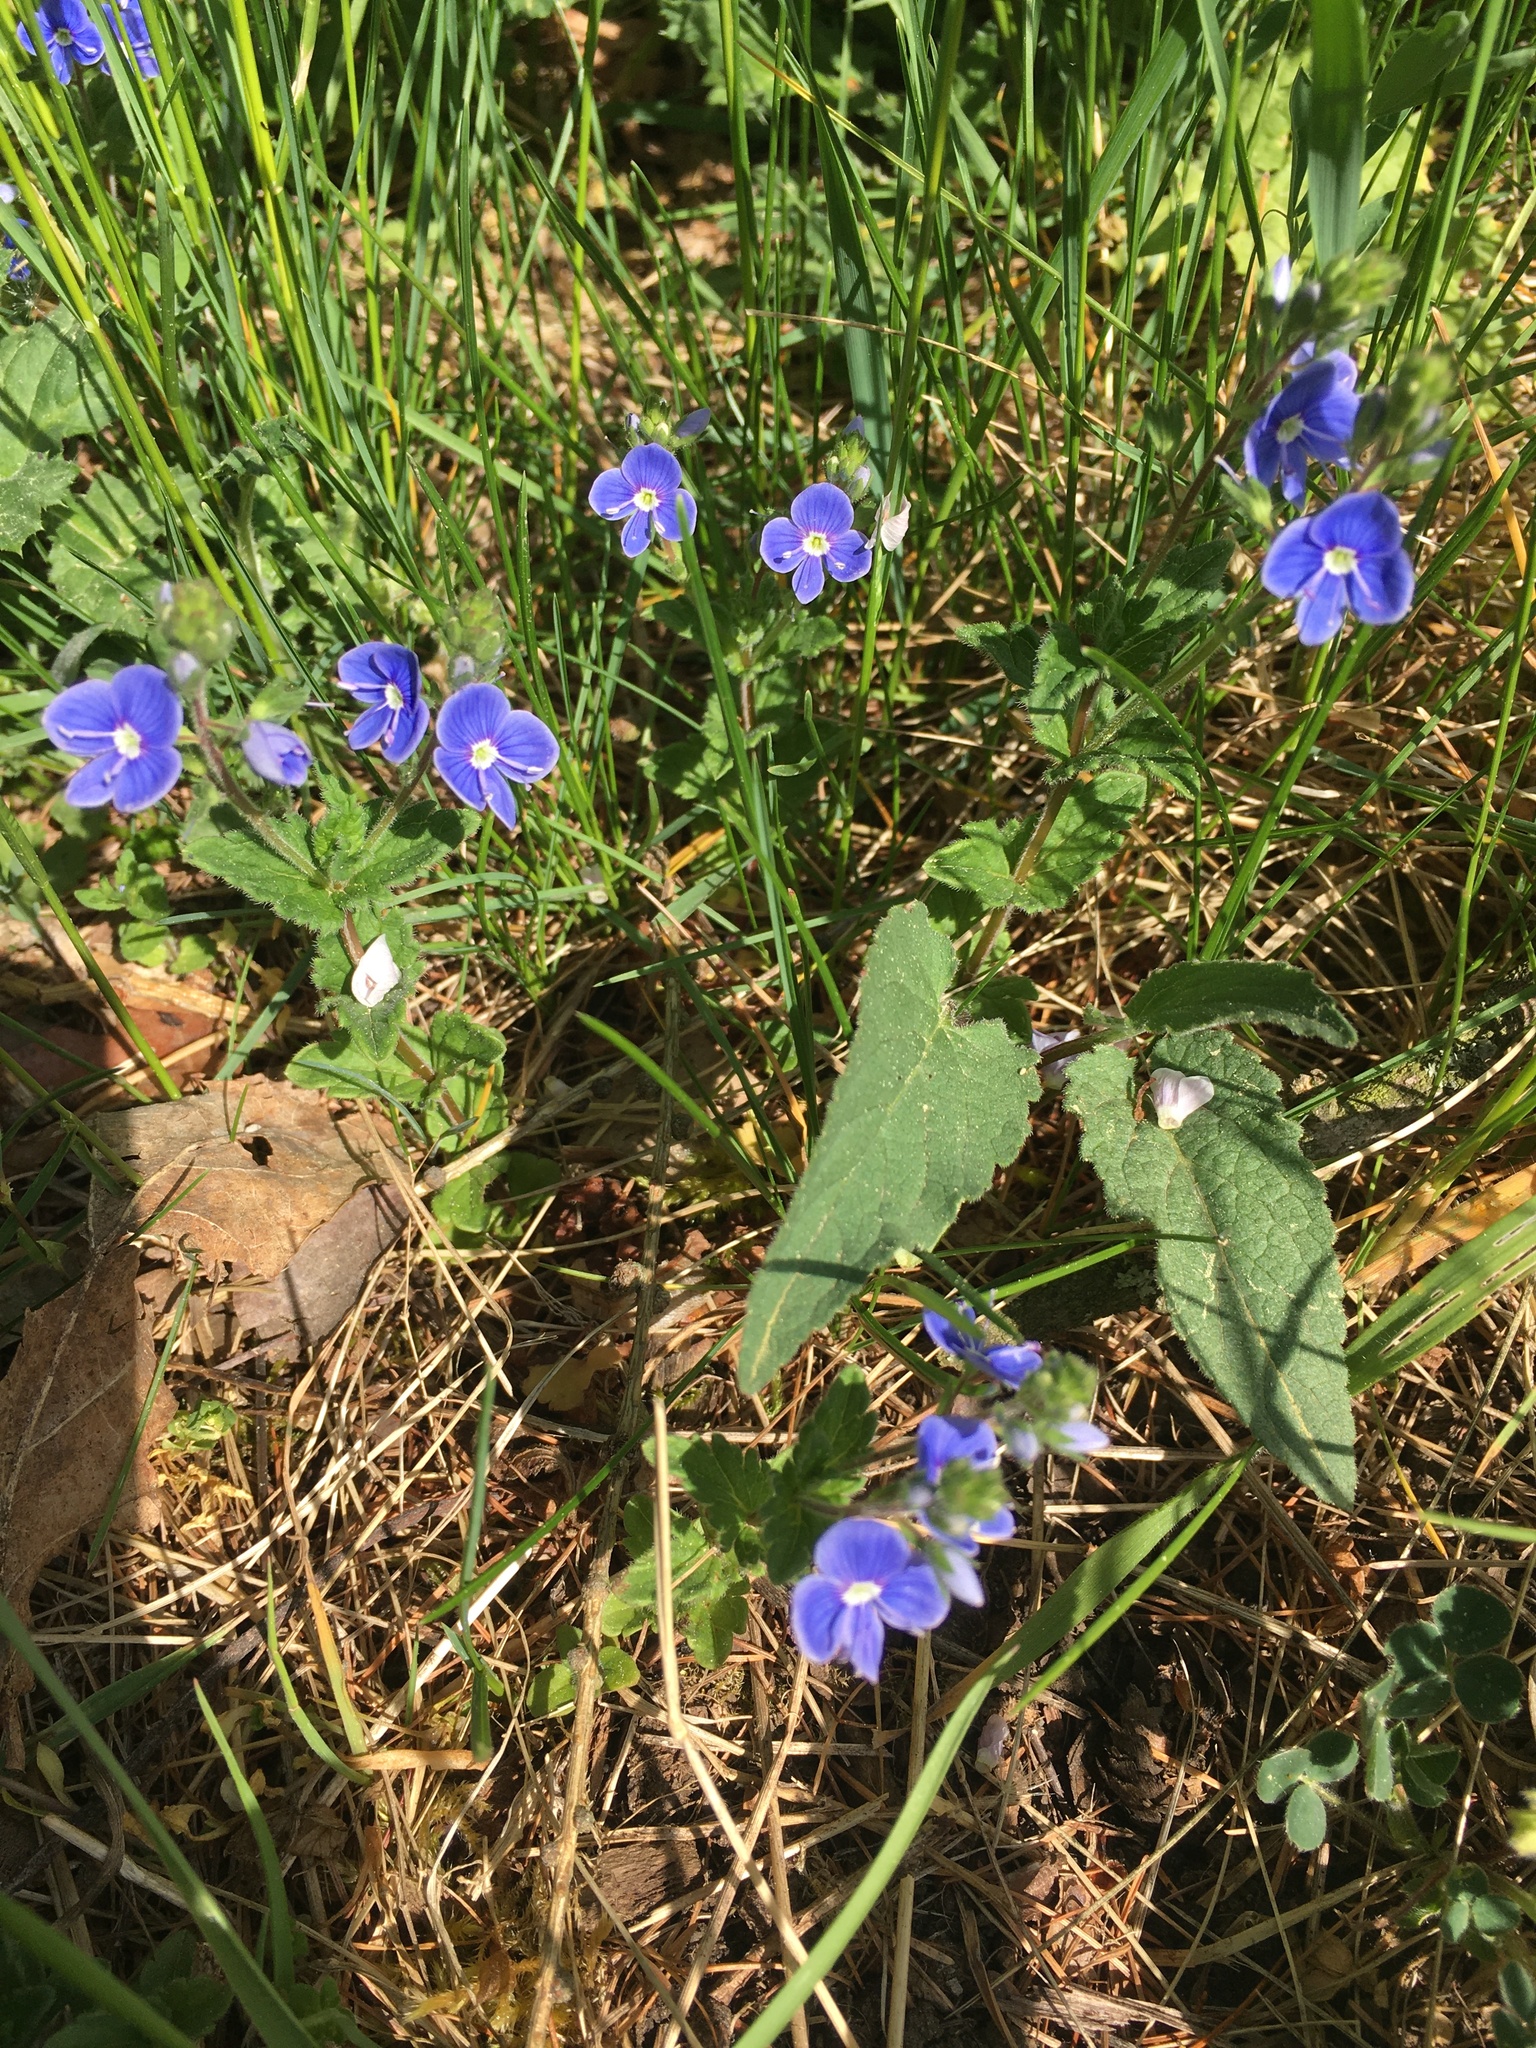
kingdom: Plantae
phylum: Tracheophyta
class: Magnoliopsida
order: Lamiales
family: Plantaginaceae
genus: Veronica
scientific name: Veronica chamaedrys
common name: Germander speedwell
